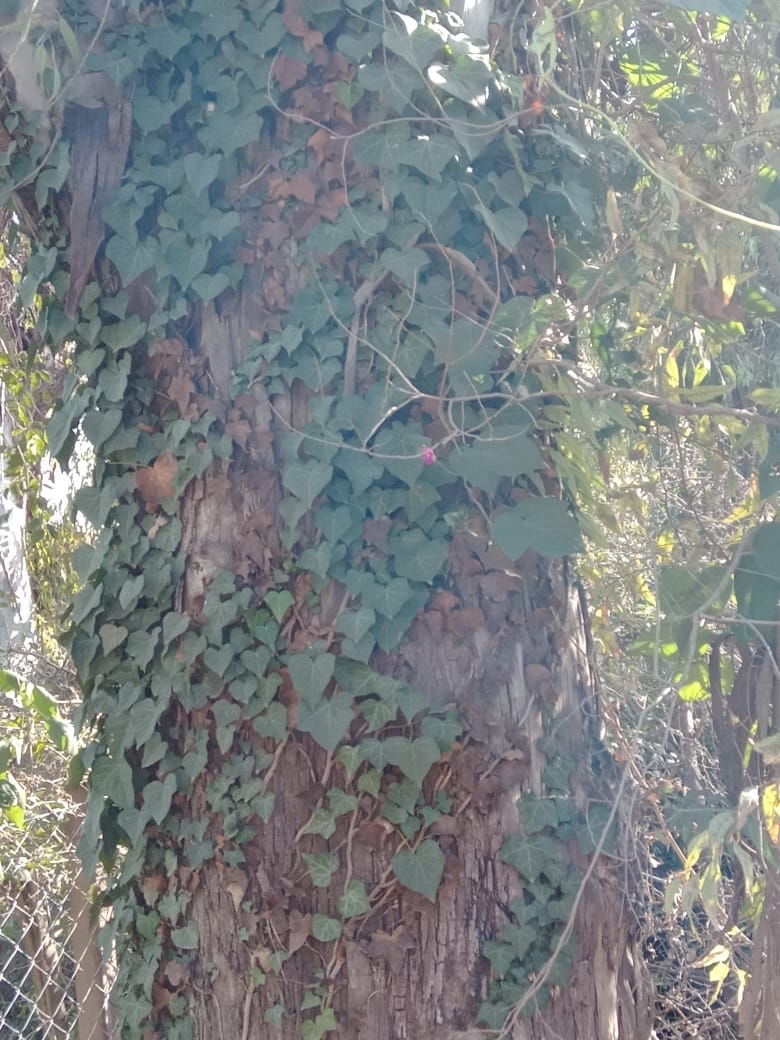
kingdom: Plantae
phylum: Tracheophyta
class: Magnoliopsida
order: Apiales
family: Araliaceae
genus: Hedera
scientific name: Hedera helix
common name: Ivy
